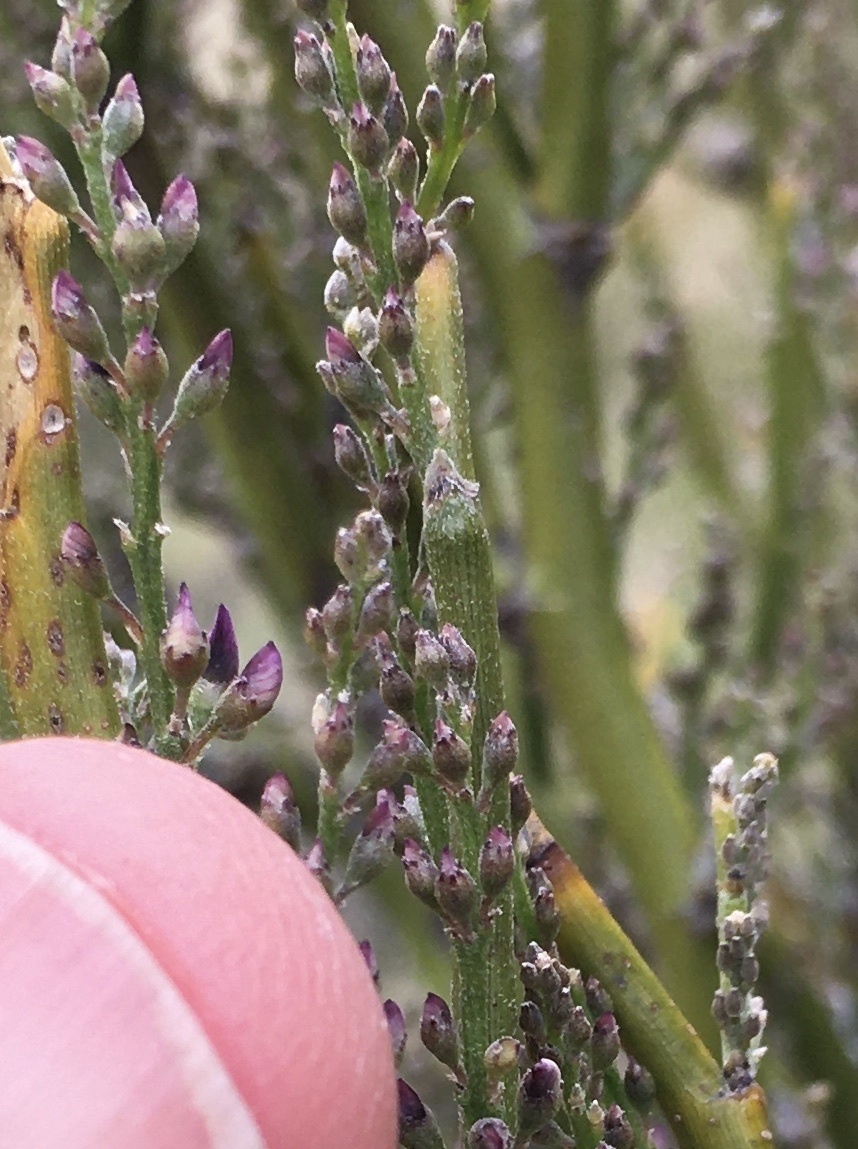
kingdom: Plantae
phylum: Tracheophyta
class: Magnoliopsida
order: Fabales
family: Fabaceae
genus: Carmichaelia
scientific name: Carmichaelia australis
